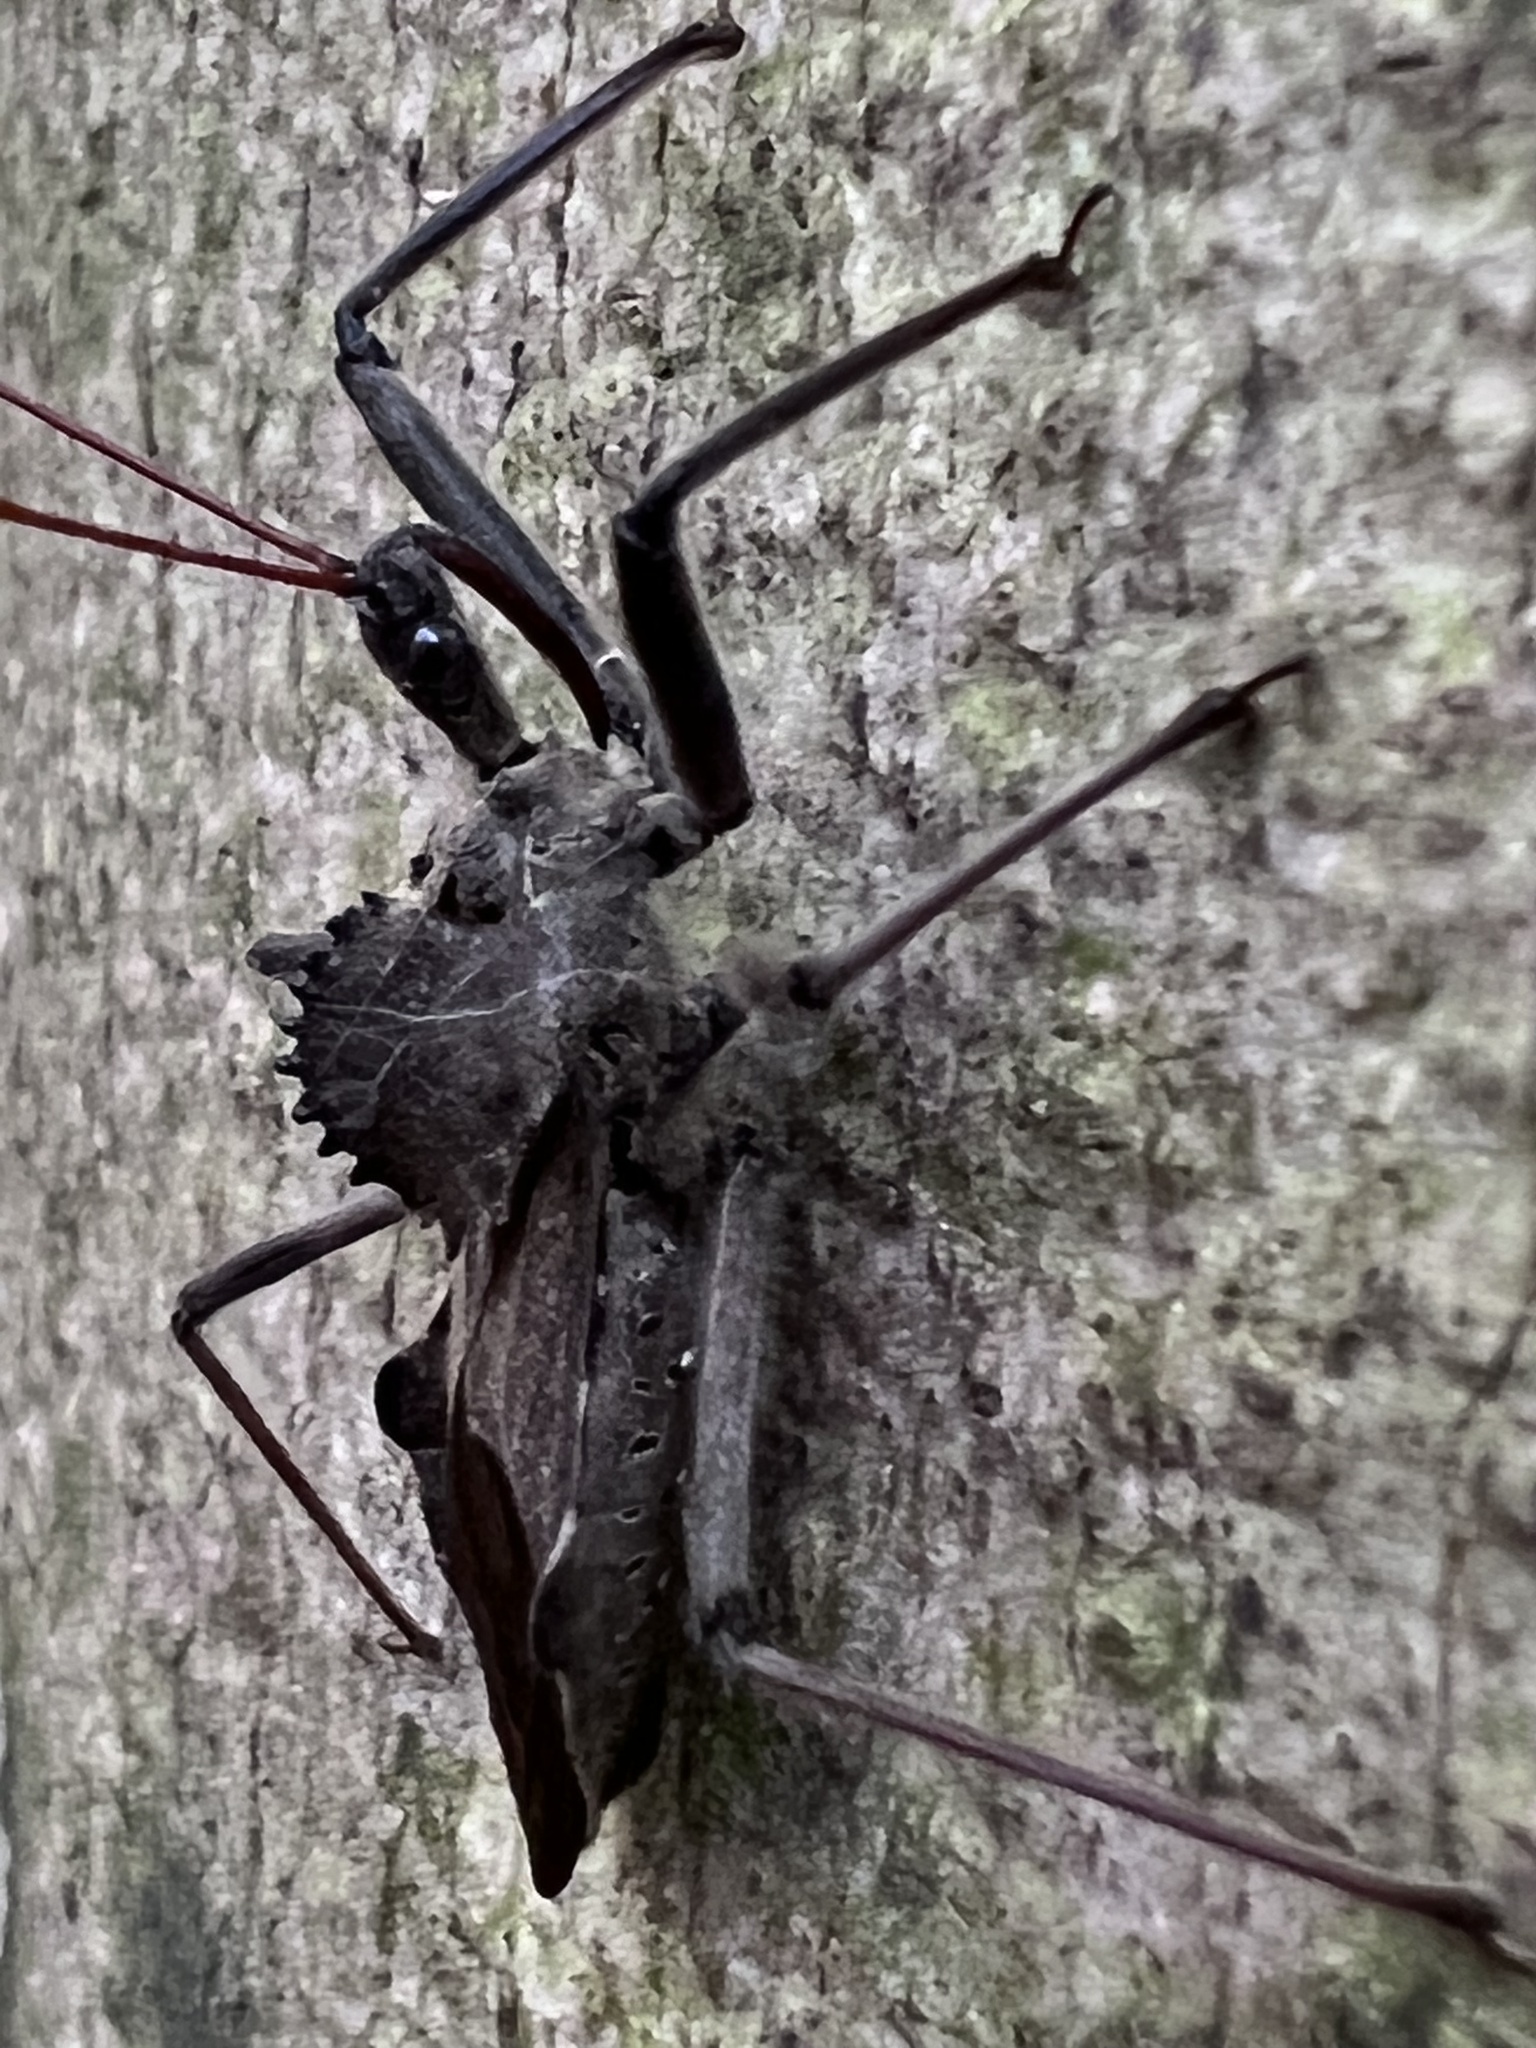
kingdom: Animalia
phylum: Arthropoda
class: Insecta
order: Hemiptera
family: Reduviidae
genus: Arilus
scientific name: Arilus cristatus
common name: North american wheel bug
